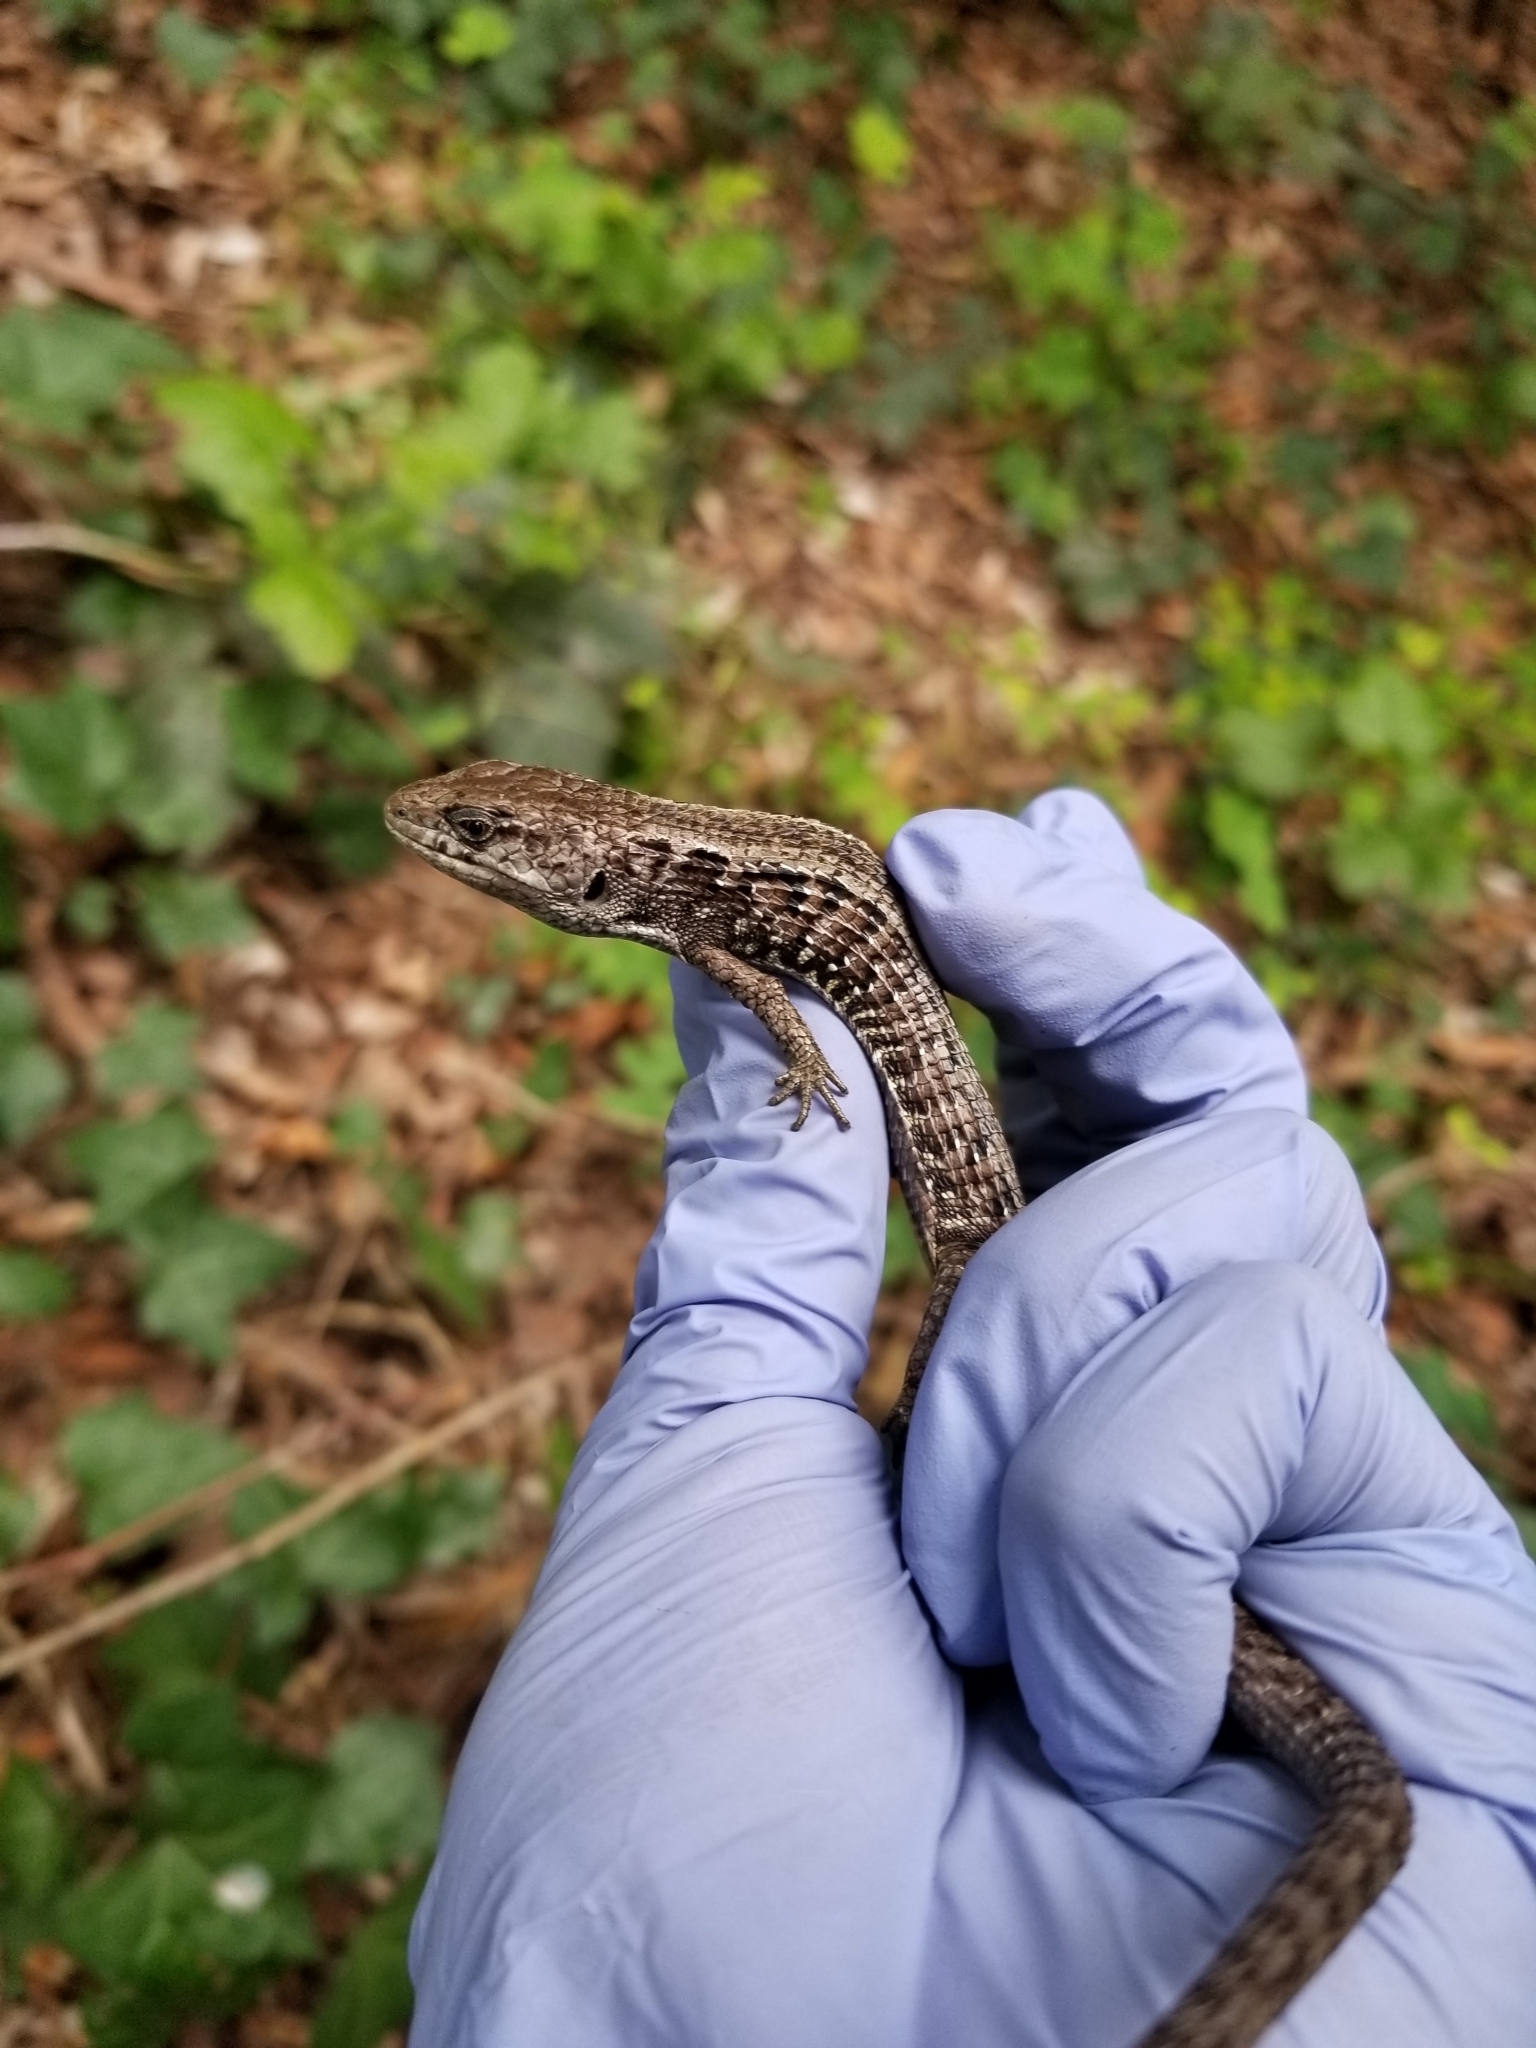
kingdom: Animalia
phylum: Chordata
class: Squamata
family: Anguidae
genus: Elgaria
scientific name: Elgaria coerulea
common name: Northern alligator lizard
